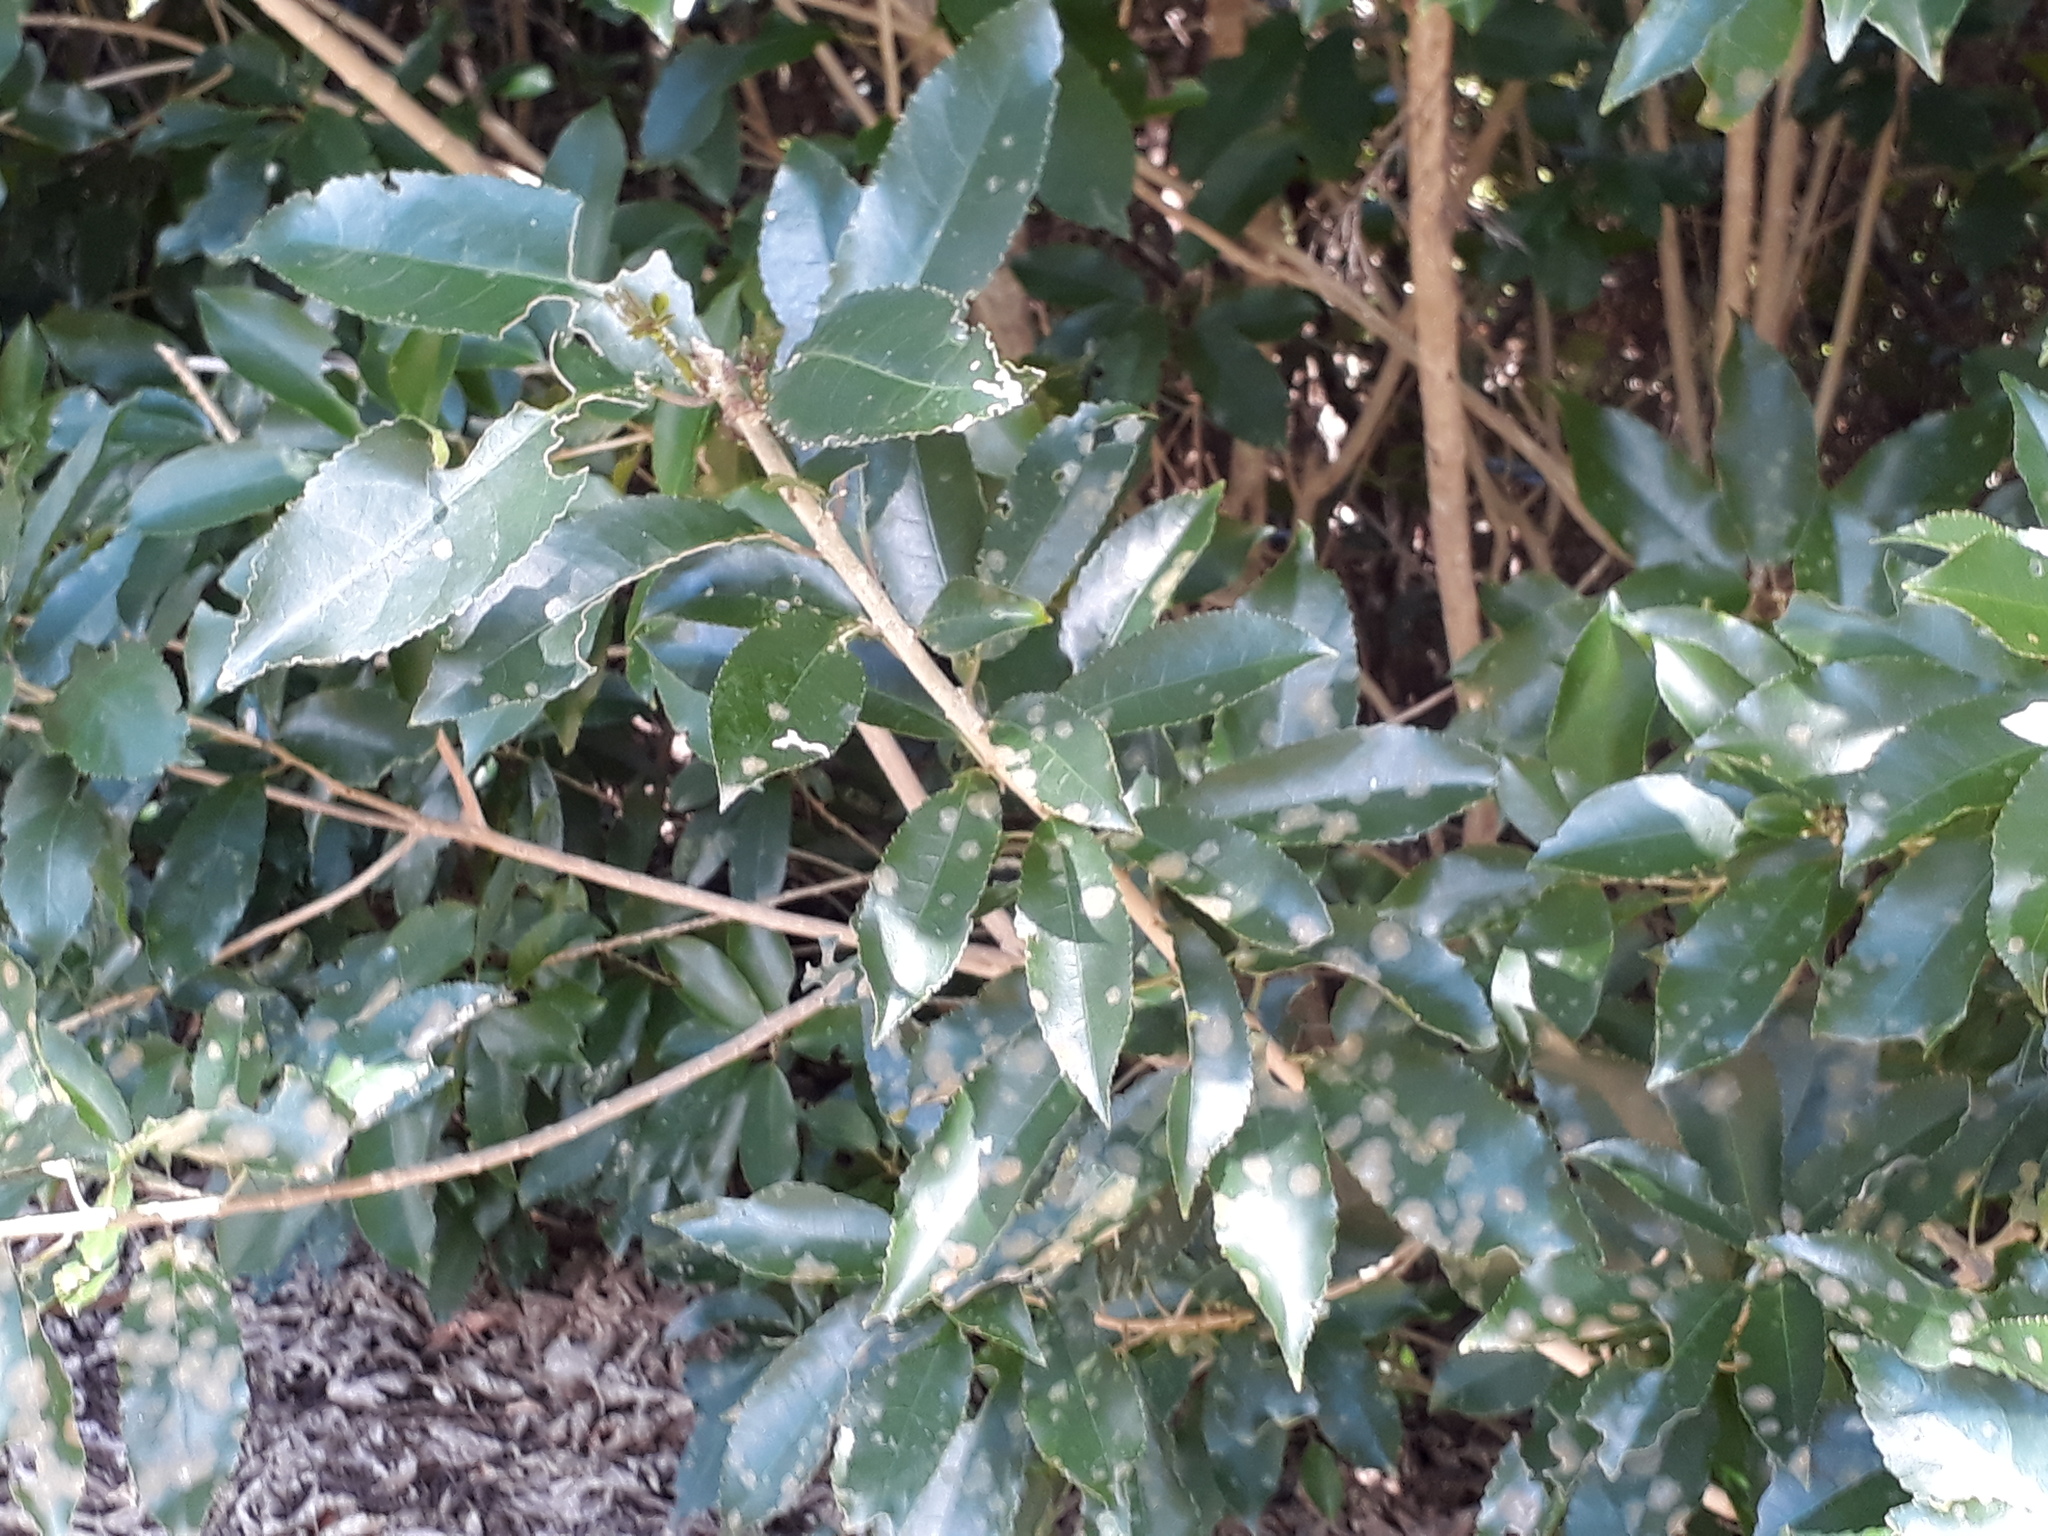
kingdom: Plantae
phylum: Tracheophyta
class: Magnoliopsida
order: Malpighiales
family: Violaceae
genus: Melicytus
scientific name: Melicytus ramiflorus
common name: Mahoe
